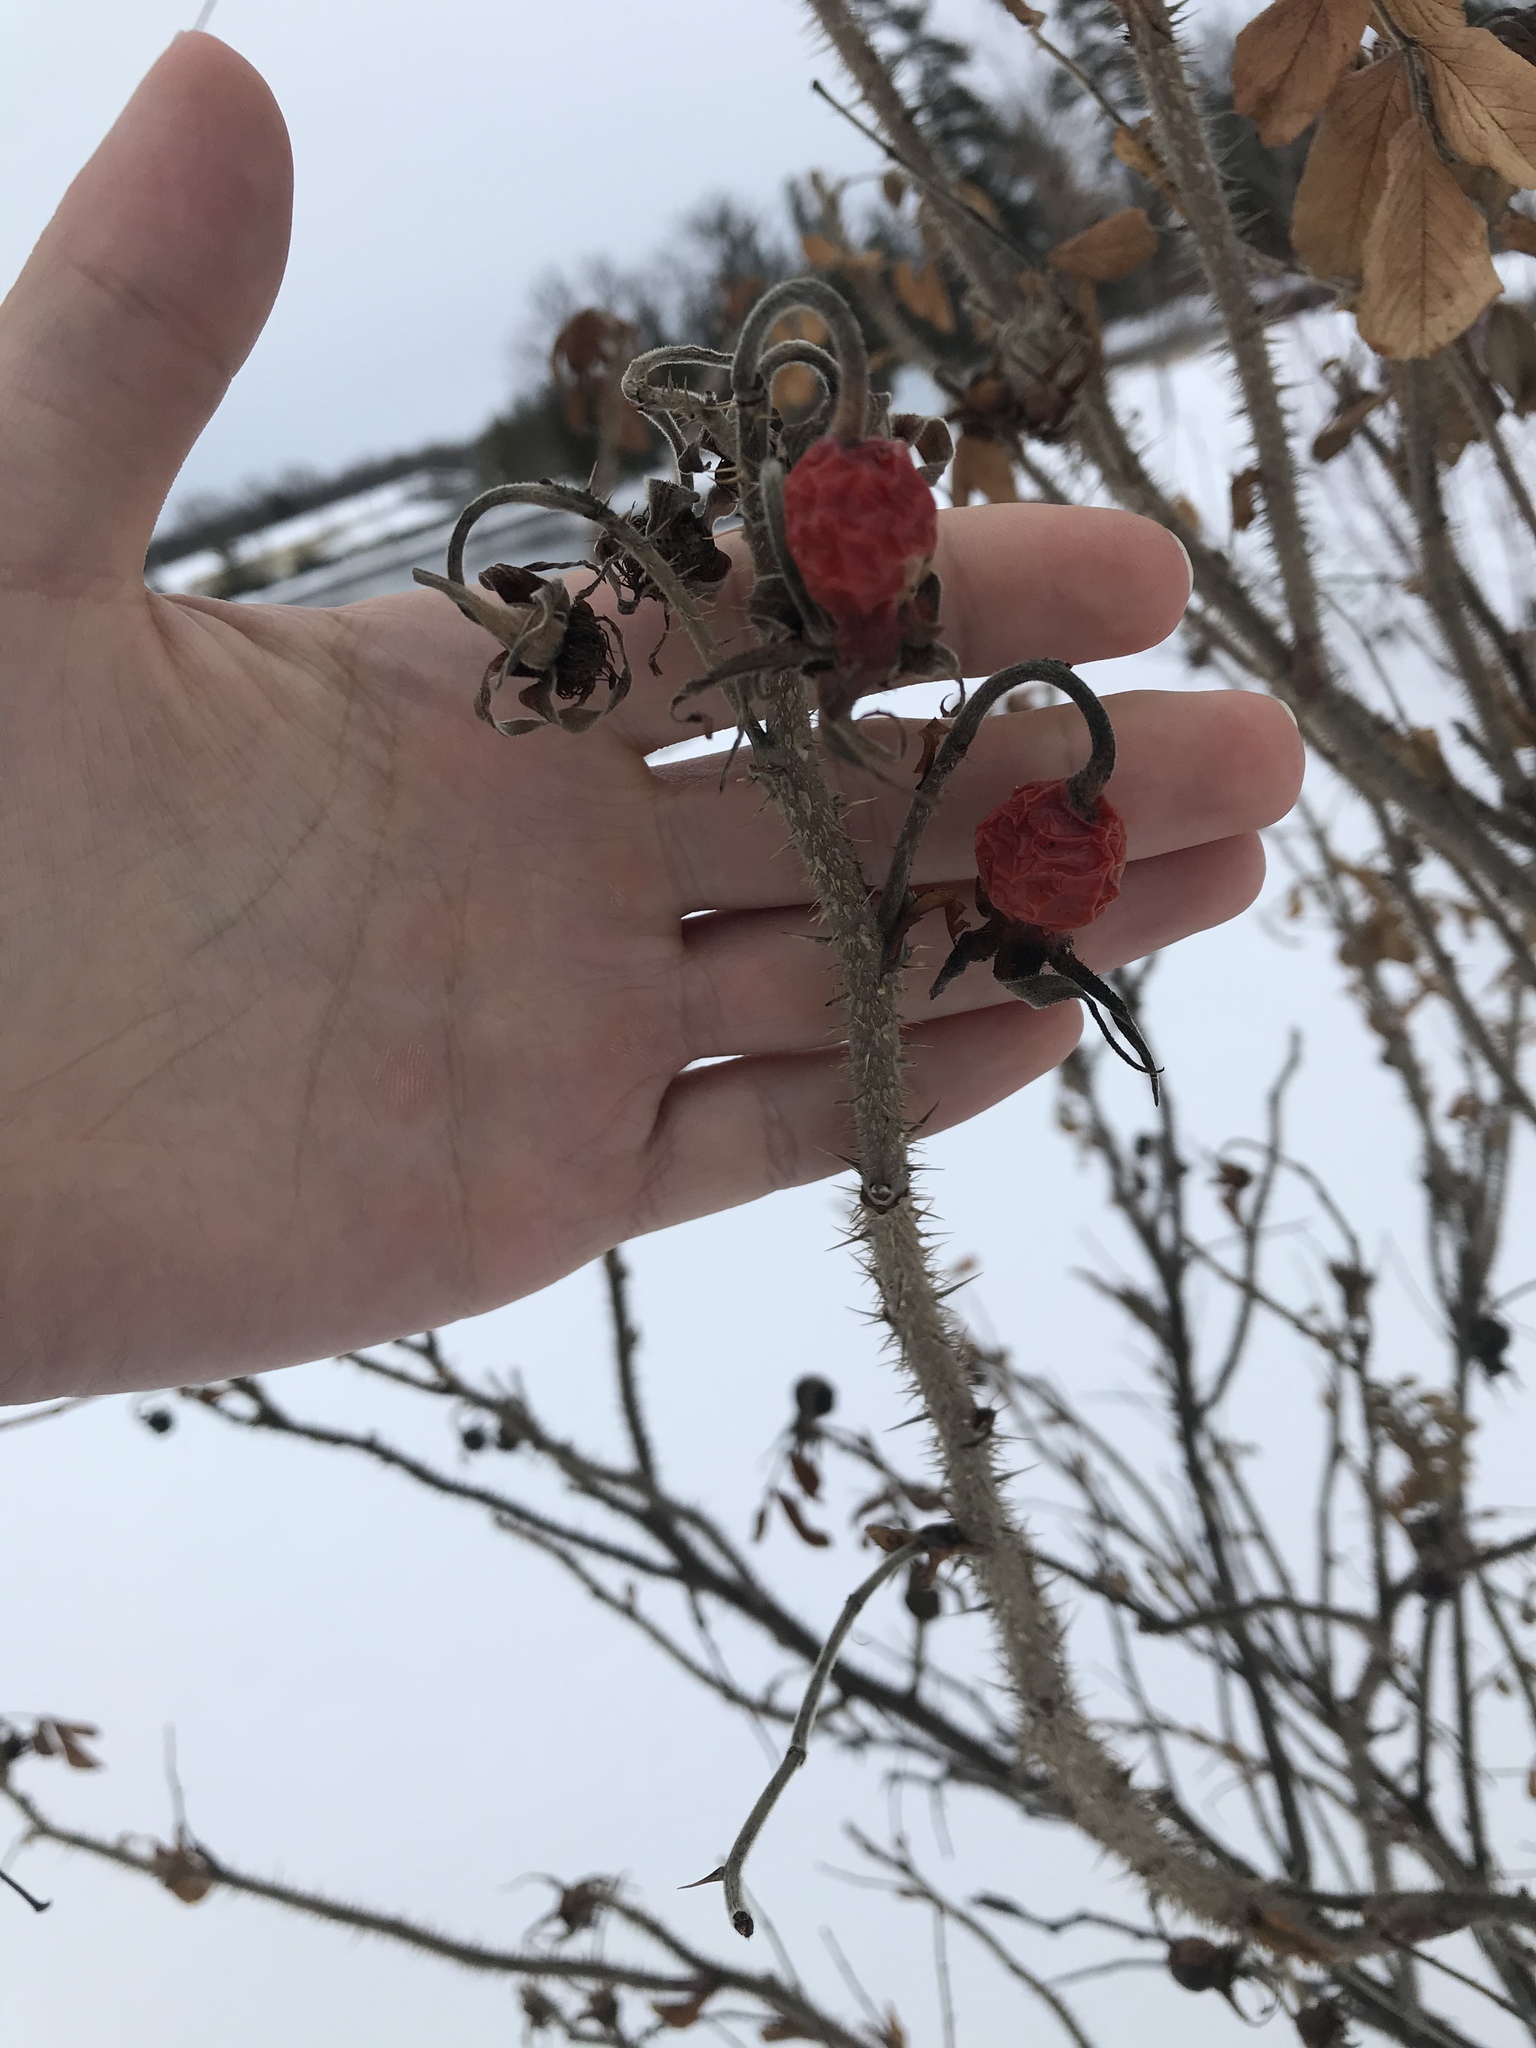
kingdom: Plantae
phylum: Tracheophyta
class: Magnoliopsida
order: Rosales
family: Rosaceae
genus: Rosa
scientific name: Rosa rugosa
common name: Japanese rose
